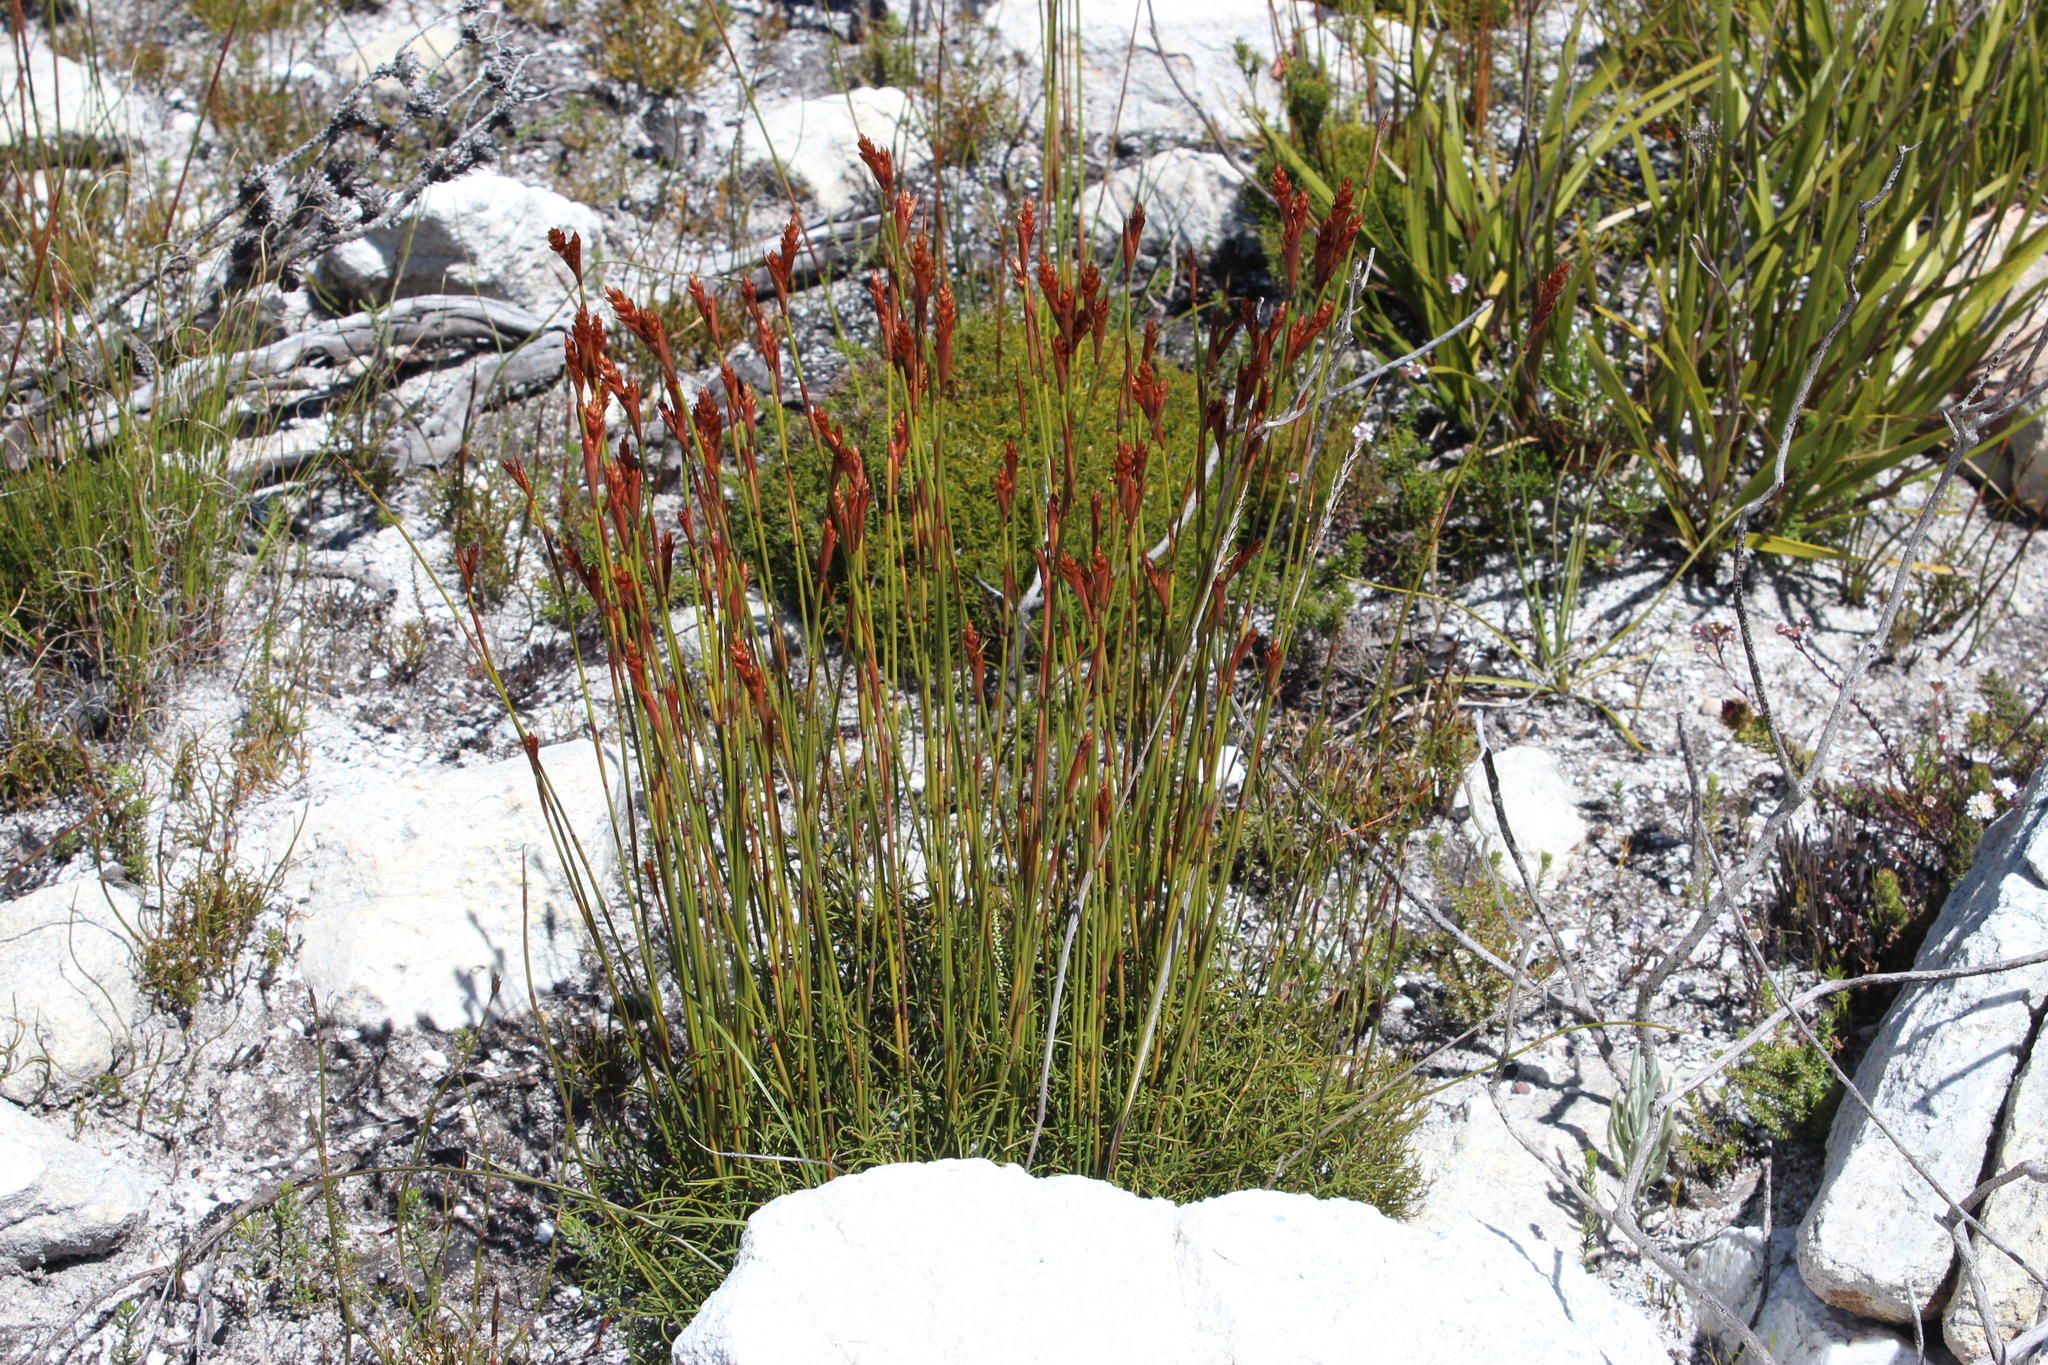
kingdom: Plantae
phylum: Tracheophyta
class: Liliopsida
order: Poales
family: Restionaceae
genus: Staberoha
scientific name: Staberoha cernua
